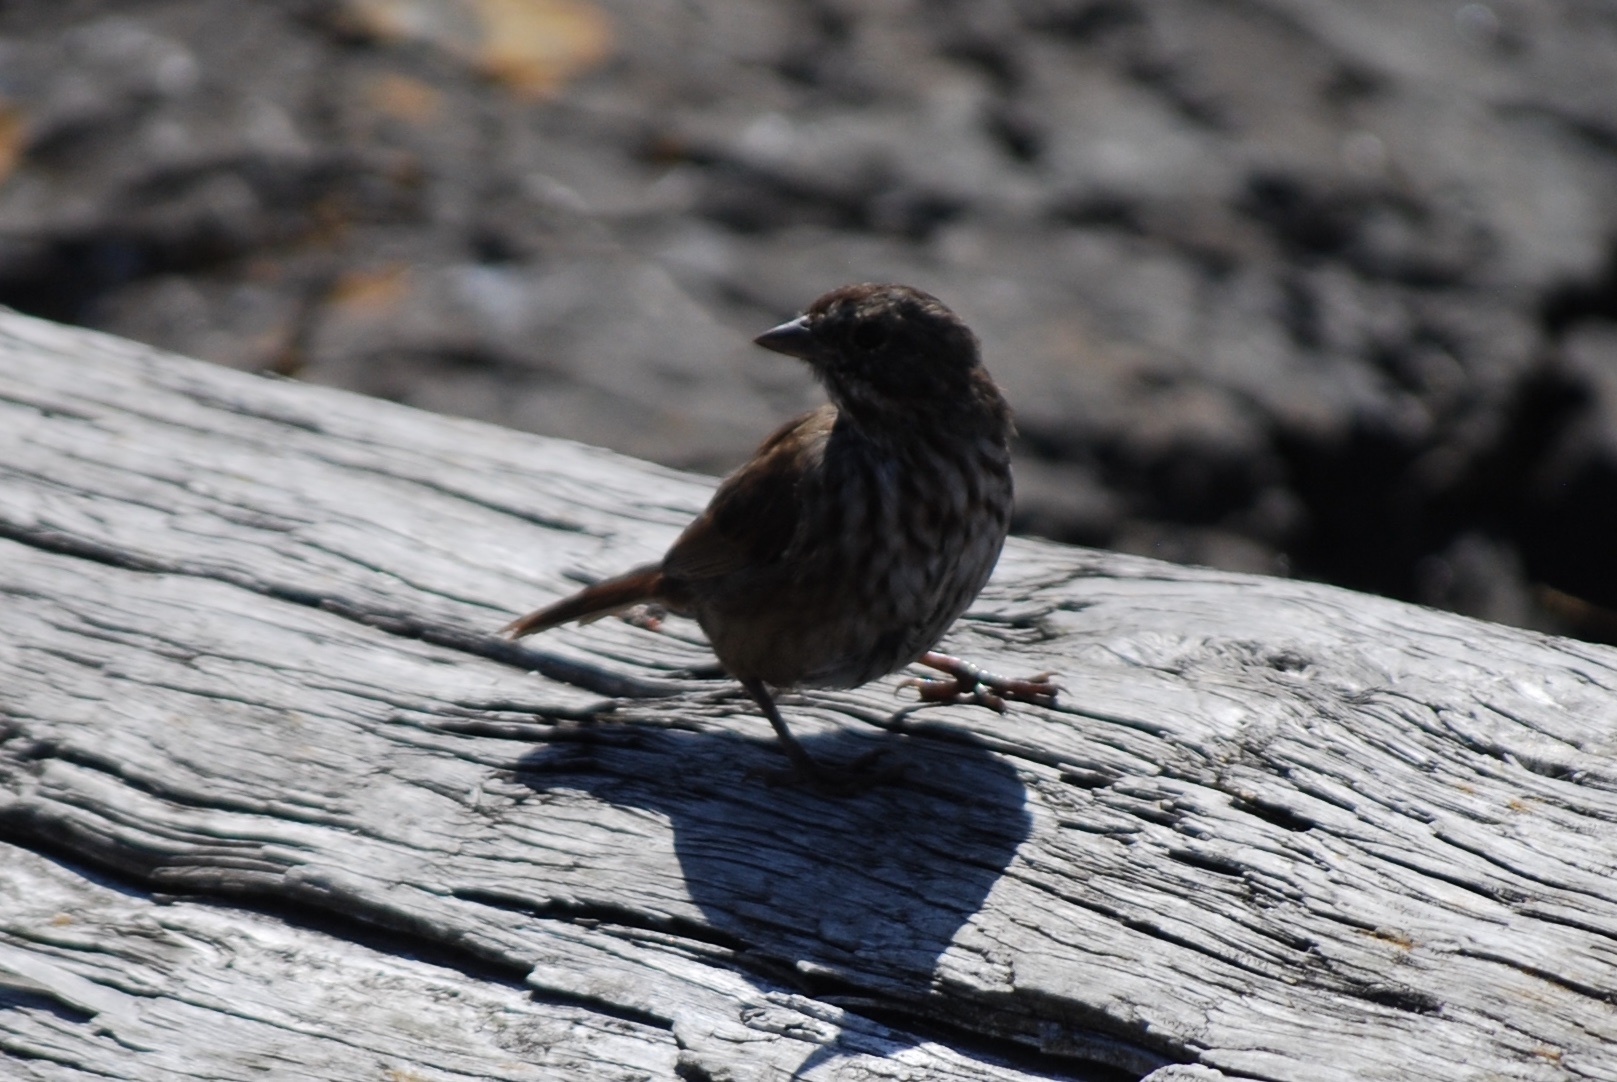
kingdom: Animalia
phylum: Chordata
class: Aves
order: Passeriformes
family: Passerellidae
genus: Melospiza
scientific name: Melospiza melodia
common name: Song sparrow
